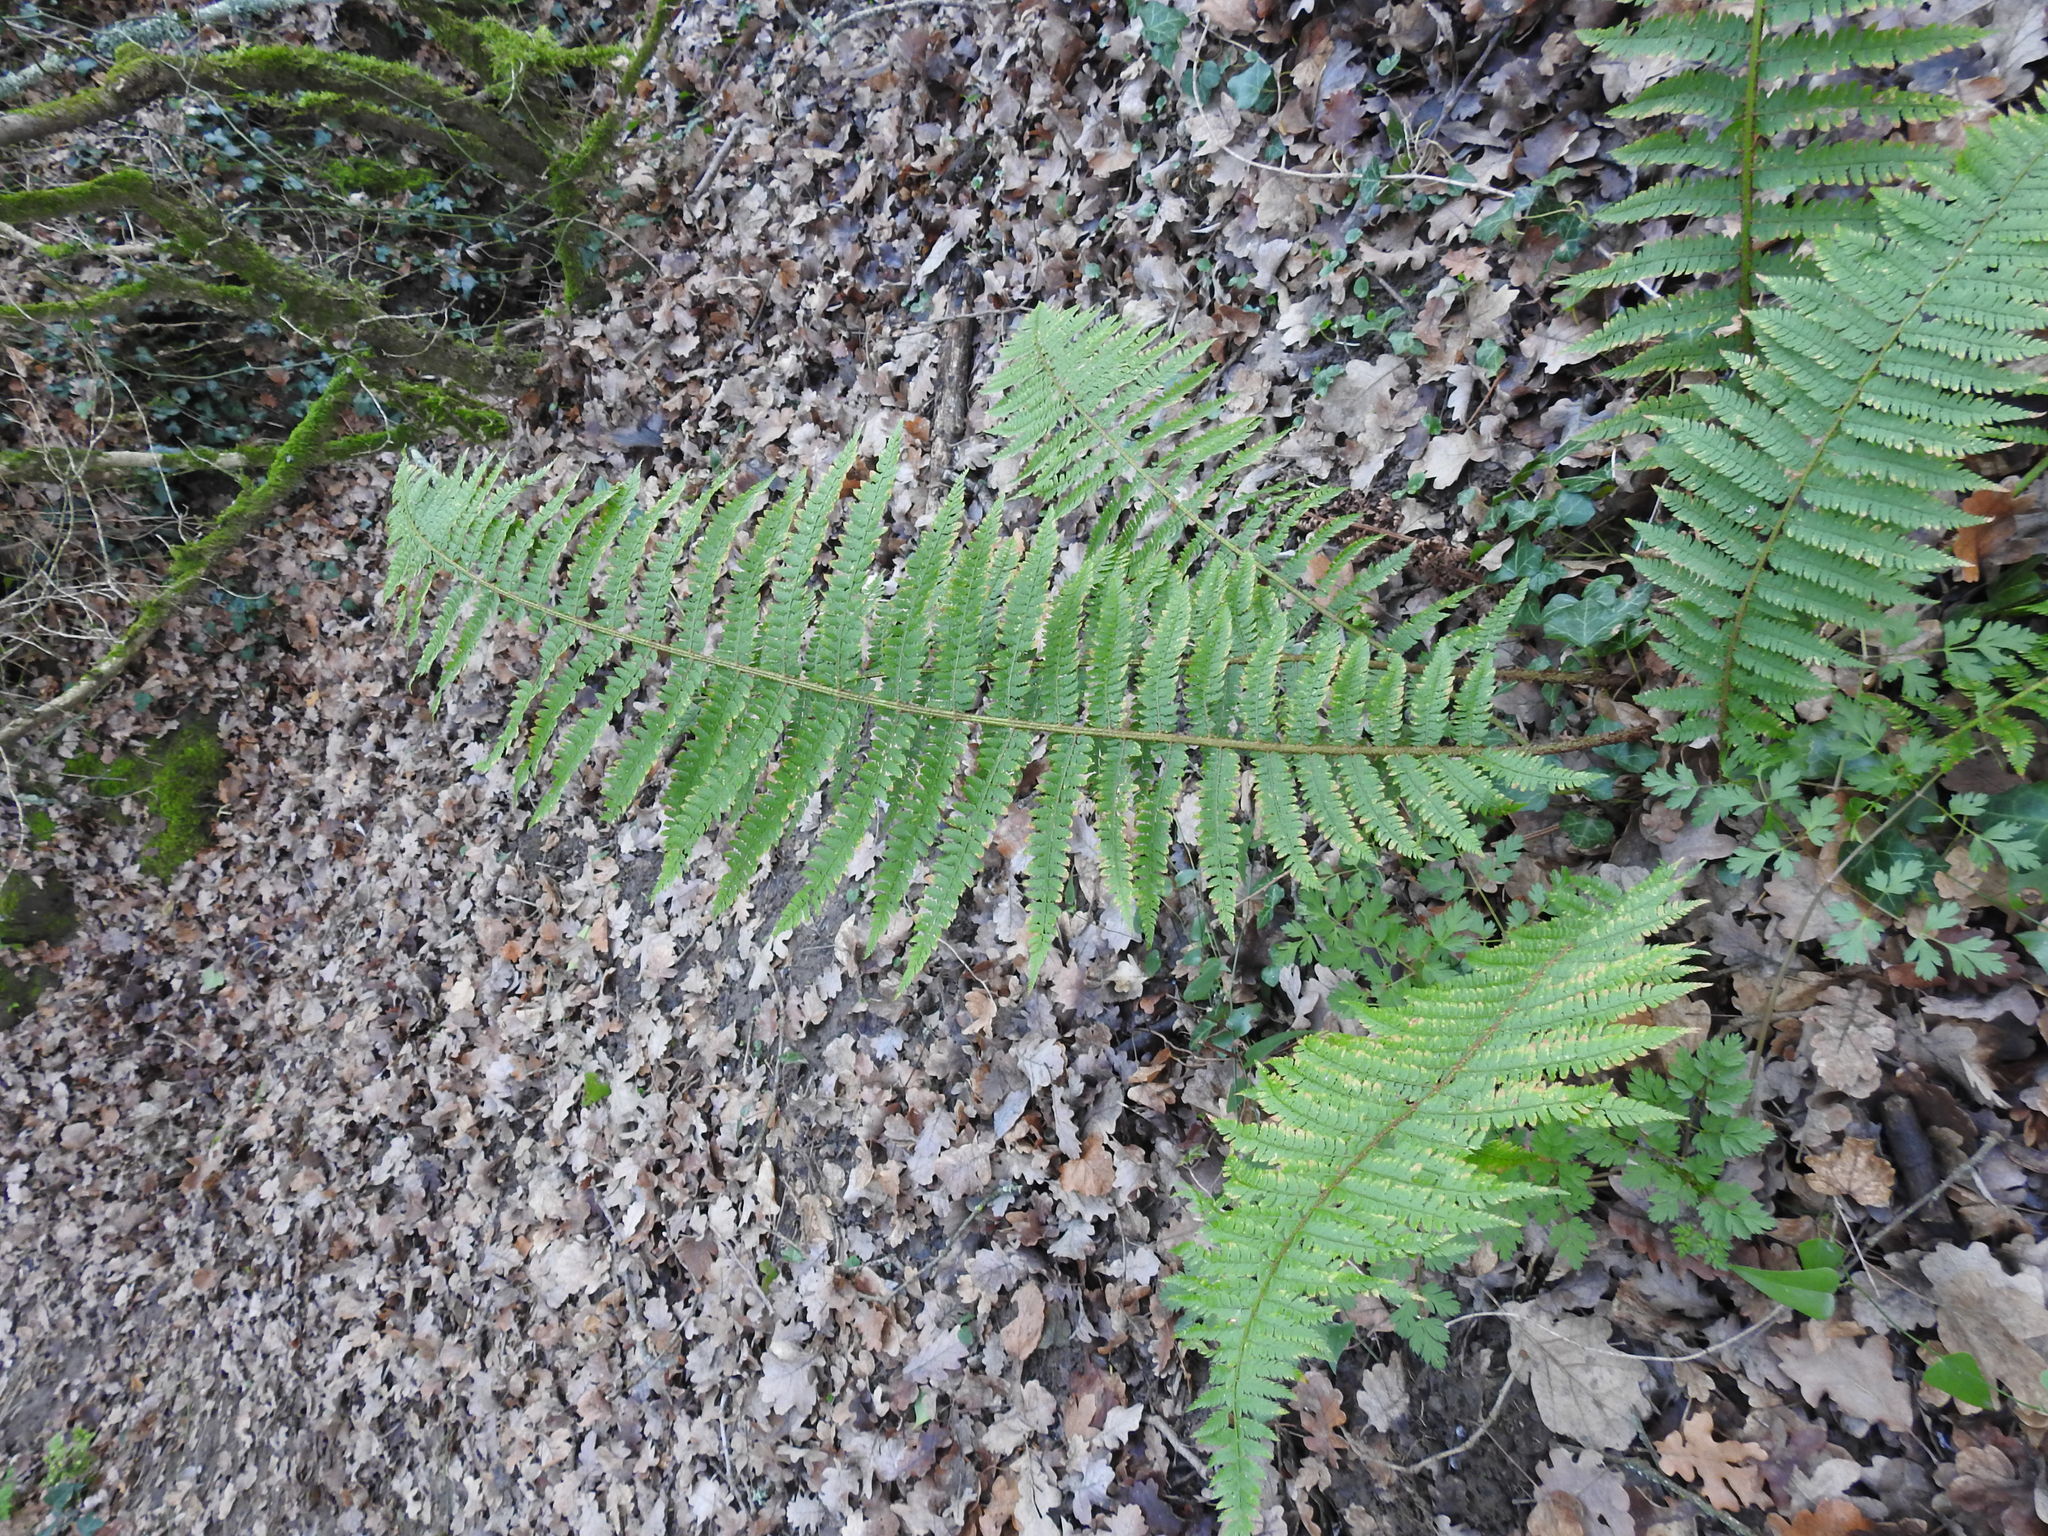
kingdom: Plantae
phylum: Tracheophyta
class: Polypodiopsida
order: Polypodiales
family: Dryopteridaceae
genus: Polystichum
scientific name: Polystichum setiferum
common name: Soft shield-fern
